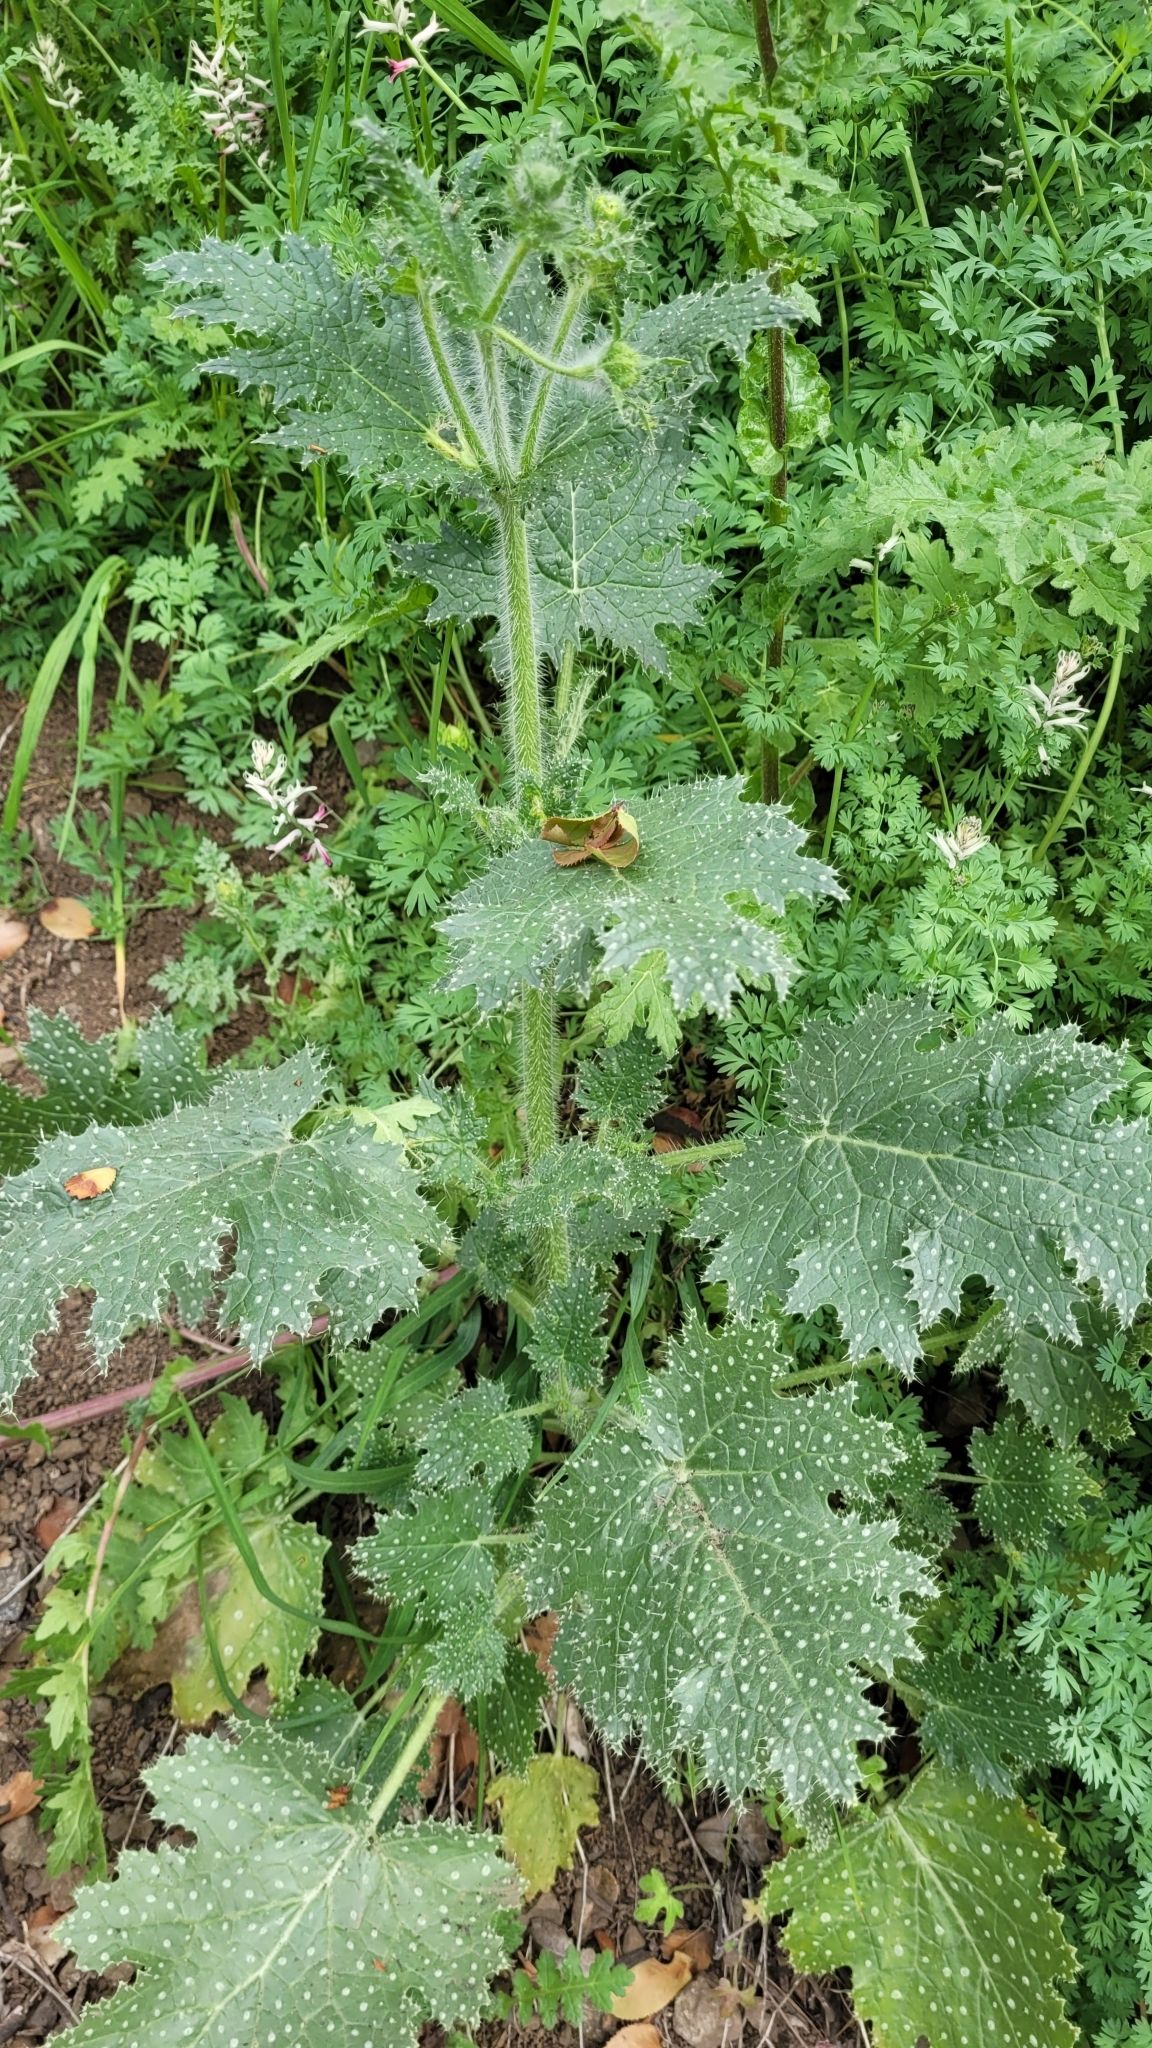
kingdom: Plantae
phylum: Tracheophyta
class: Magnoliopsida
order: Cornales
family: Loasaceae
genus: Loasa
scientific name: Loasa placei
